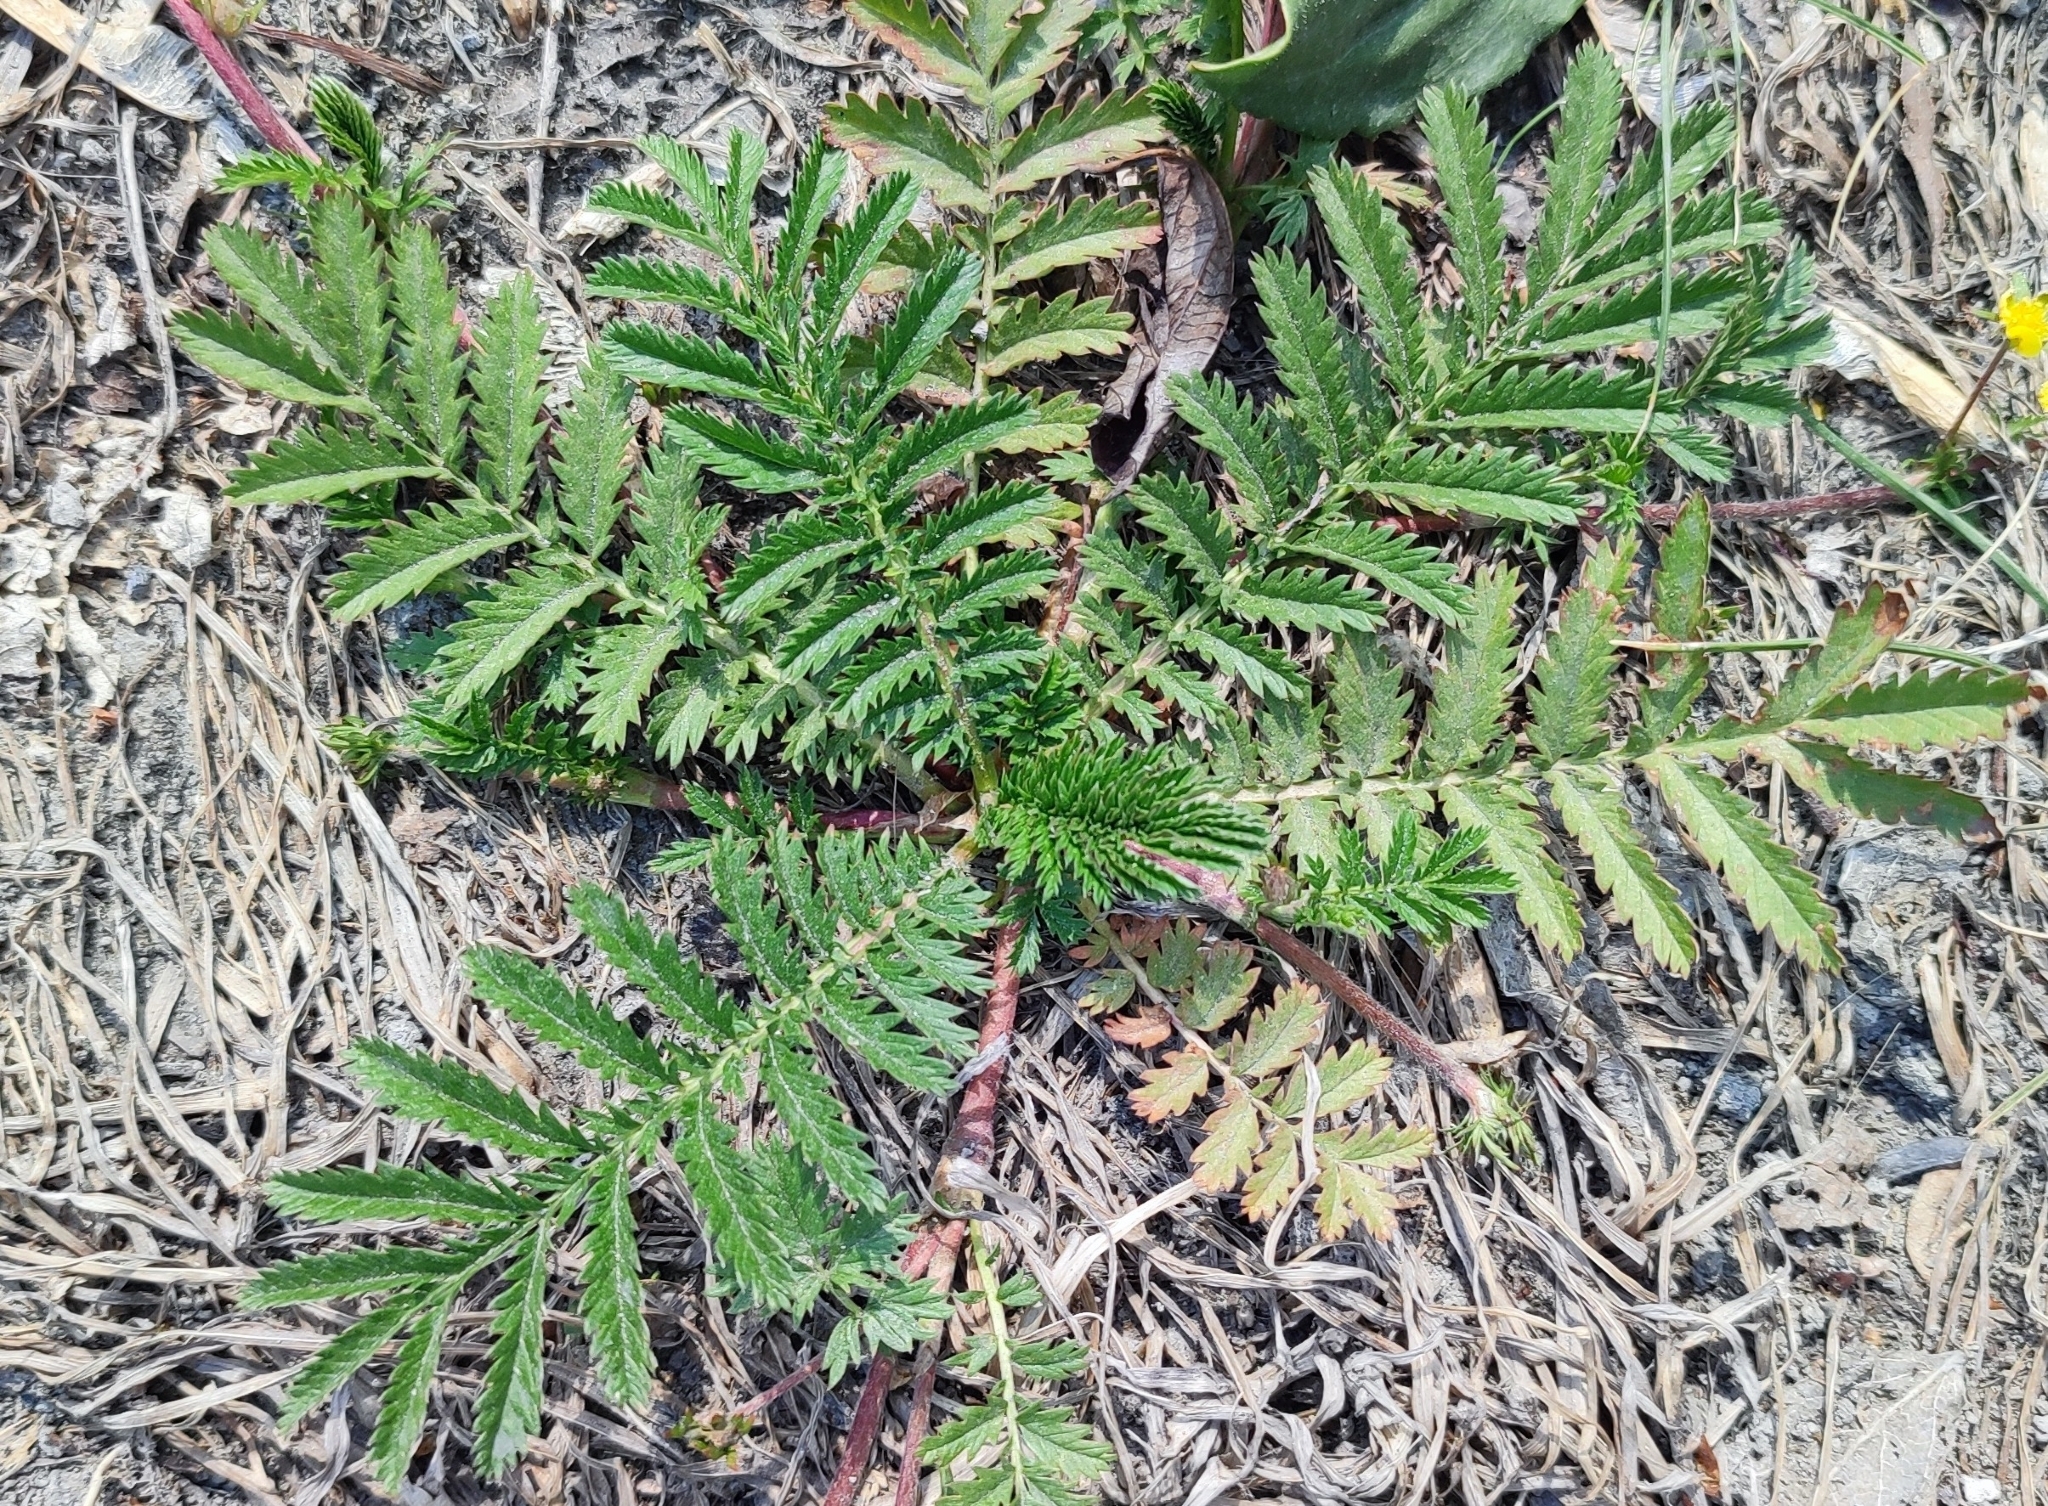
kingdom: Plantae
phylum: Tracheophyta
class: Magnoliopsida
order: Rosales
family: Rosaceae
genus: Argentina
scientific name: Argentina anserina
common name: Common silverweed
